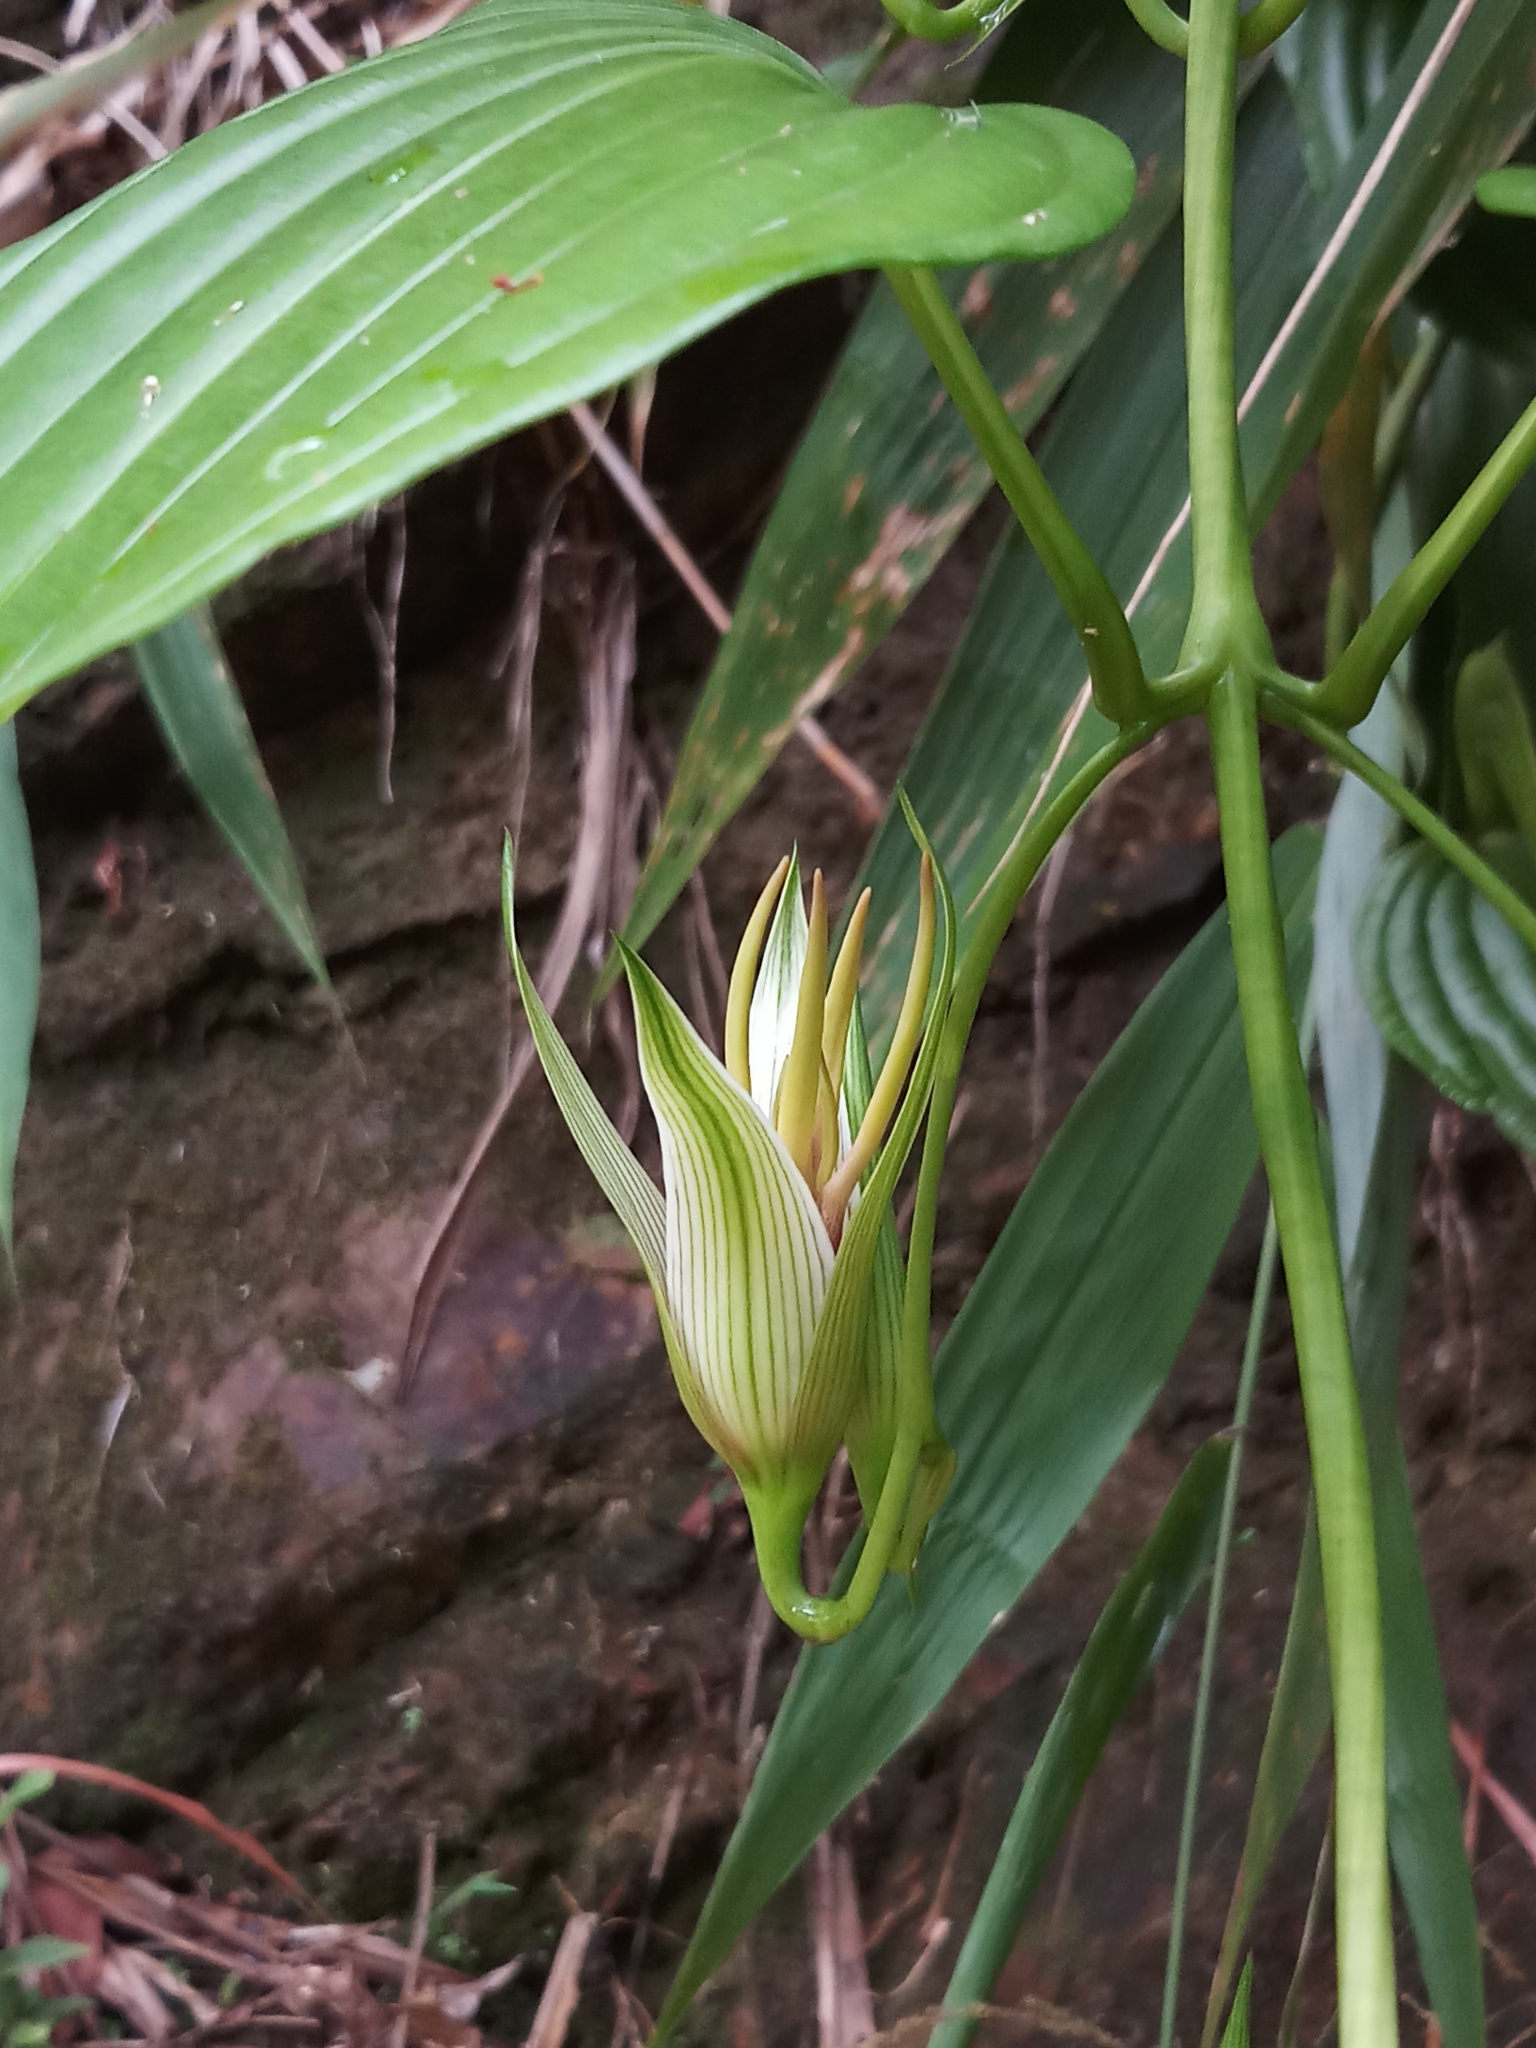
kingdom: Plantae
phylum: Tracheophyta
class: Liliopsida
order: Pandanales
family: Stemonaceae
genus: Stemona
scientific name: Stemona tuberosa
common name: Stemona
